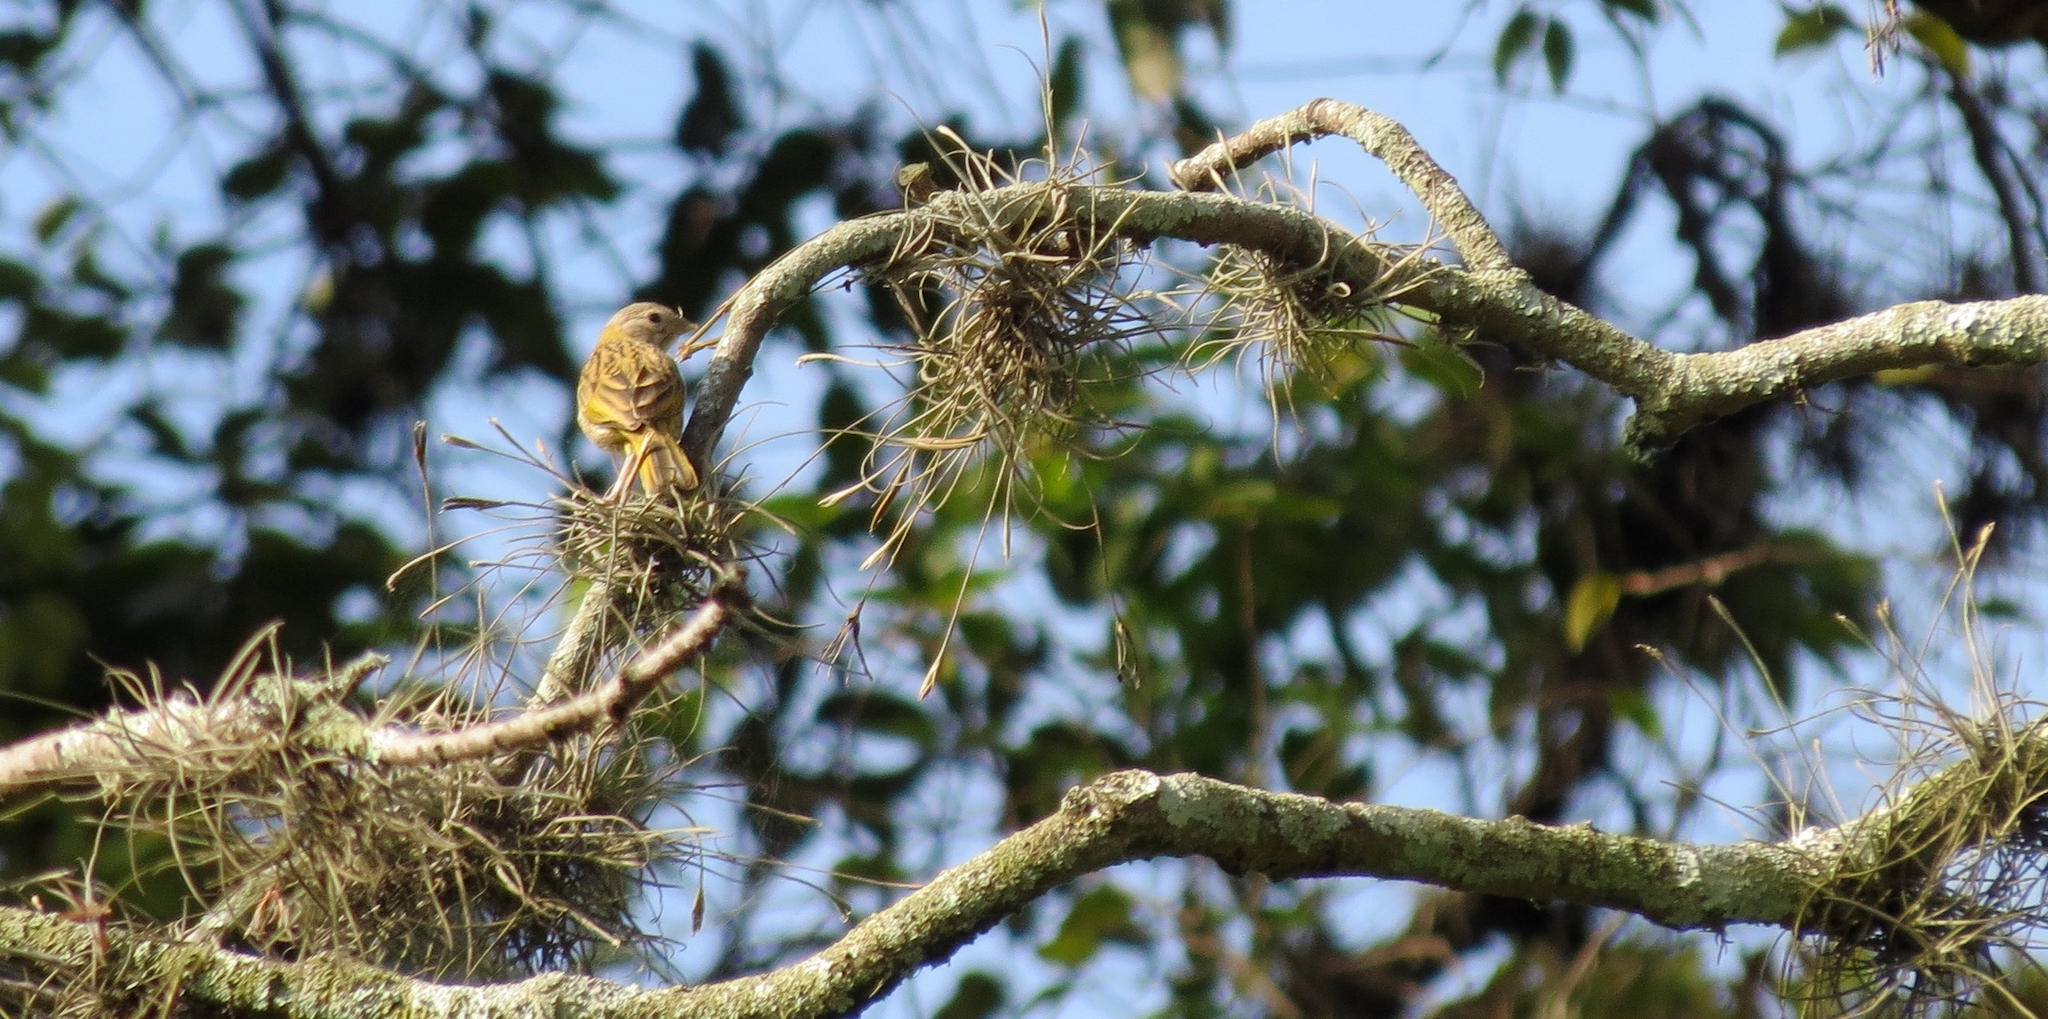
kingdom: Animalia
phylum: Chordata
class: Aves
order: Passeriformes
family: Thraupidae
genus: Sicalis
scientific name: Sicalis flaveola
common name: Saffron finch
